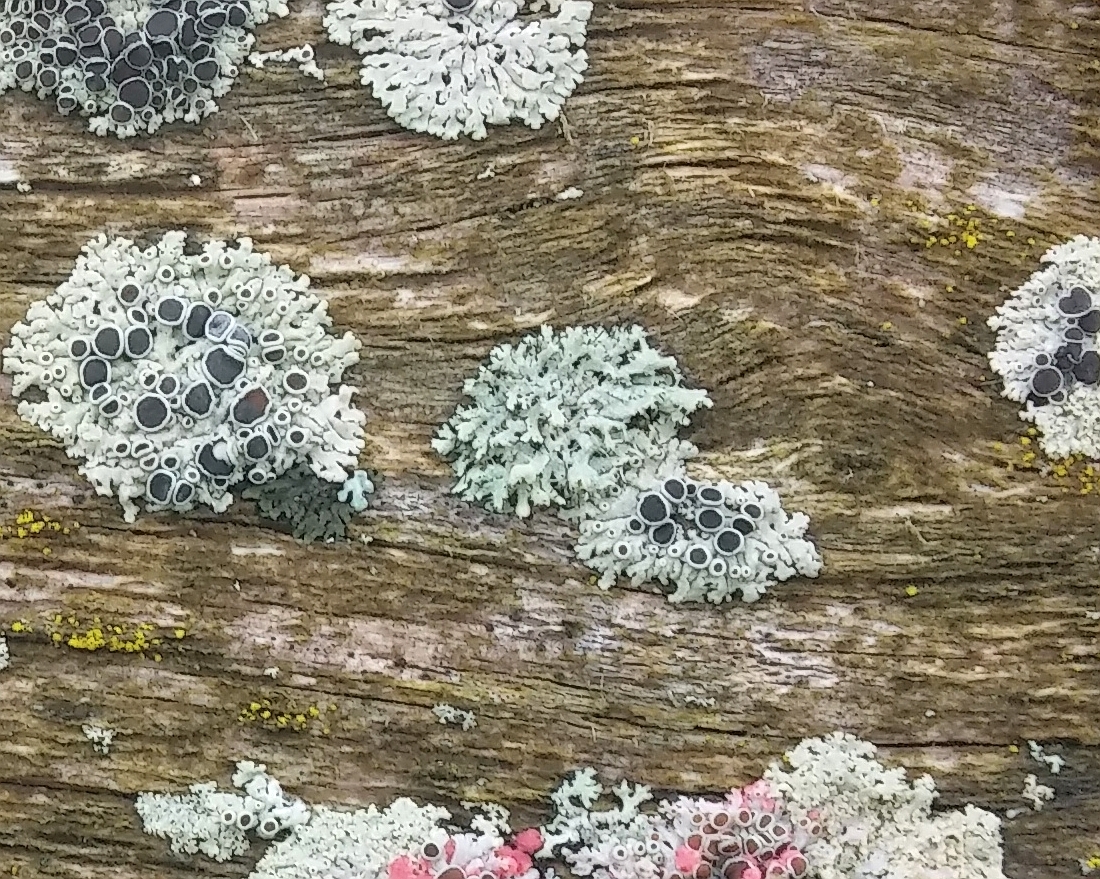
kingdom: Fungi
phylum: Ascomycota
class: Lecanoromycetes
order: Caliciales
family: Physciaceae
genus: Physcia
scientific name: Physcia adscendens
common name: Hooded rosette lichen
